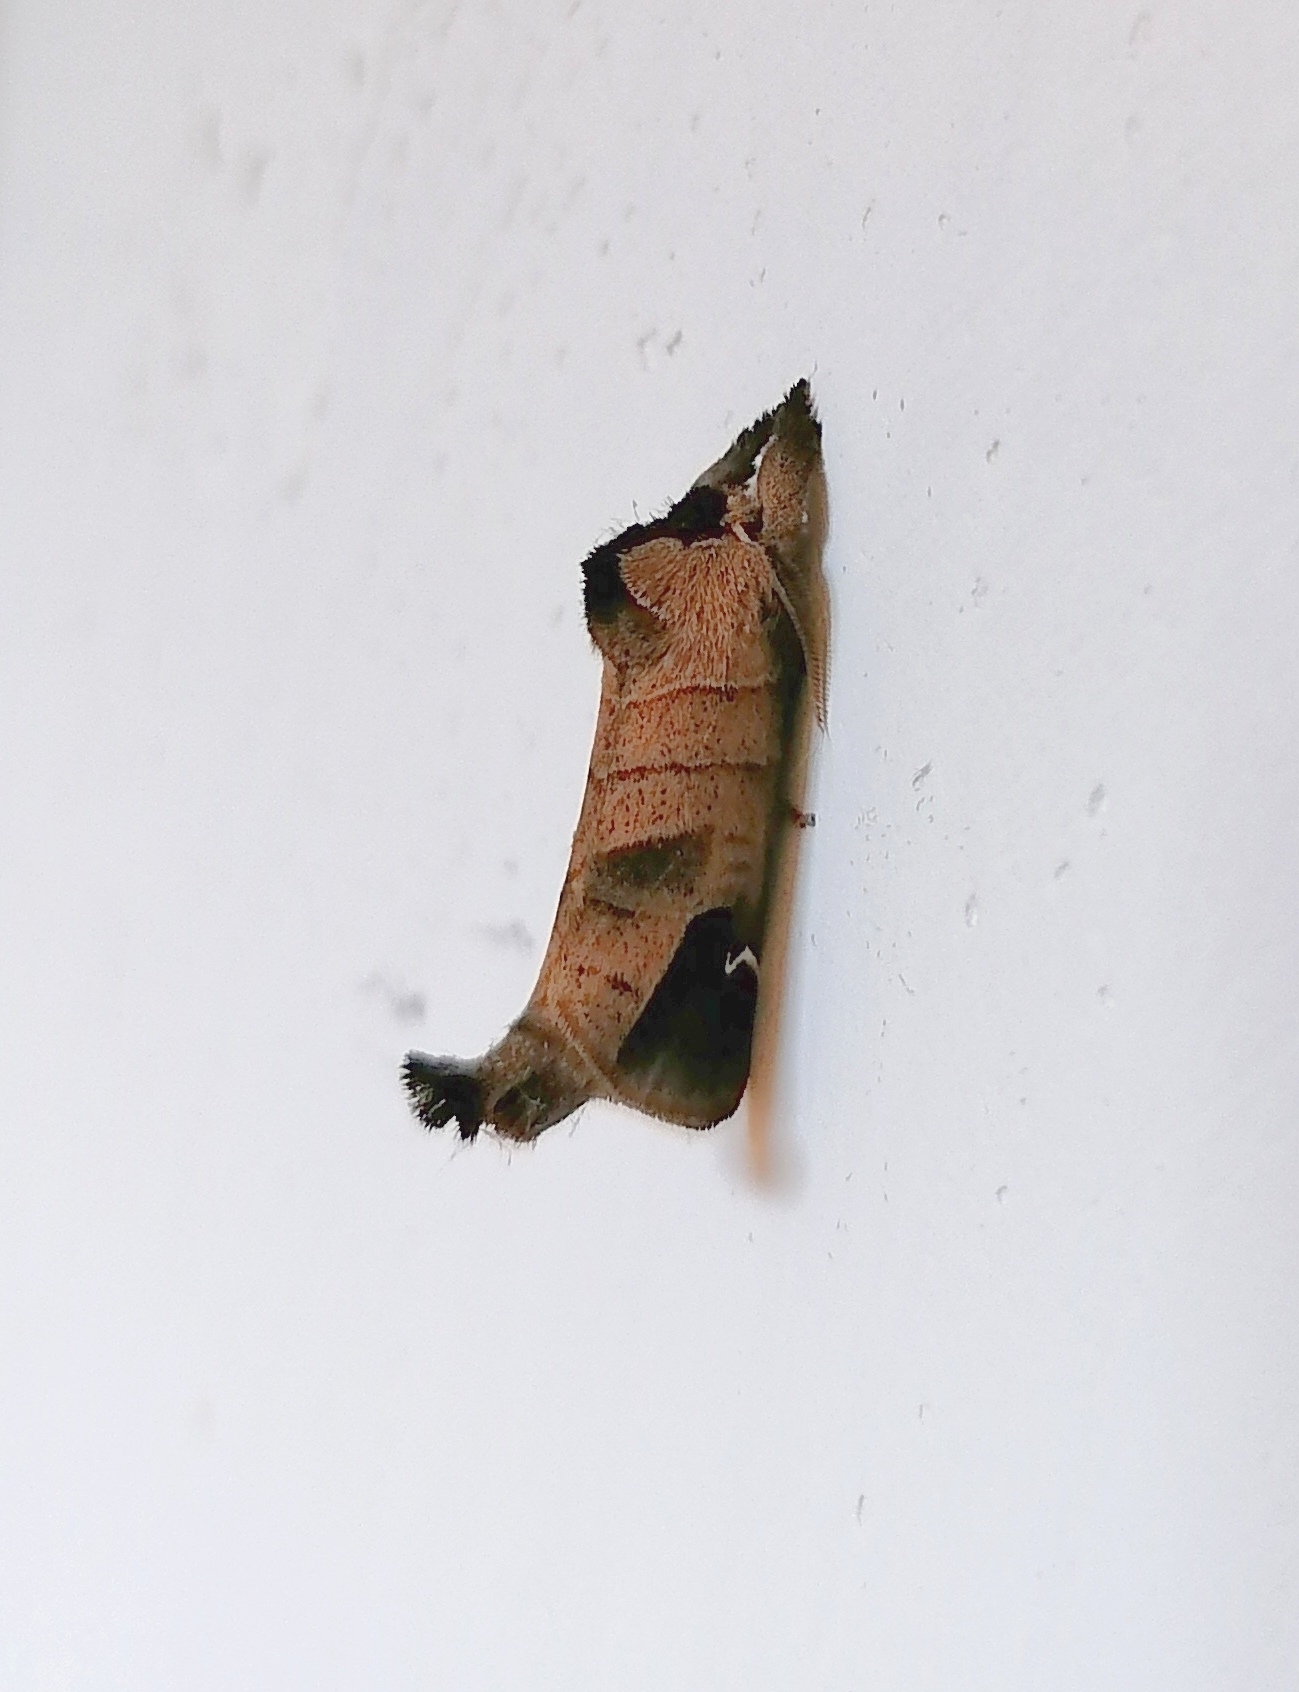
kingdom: Animalia
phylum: Arthropoda
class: Insecta
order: Lepidoptera
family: Notodontidae
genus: Clostera
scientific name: Clostera albosigma
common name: Sigmoid prominent
